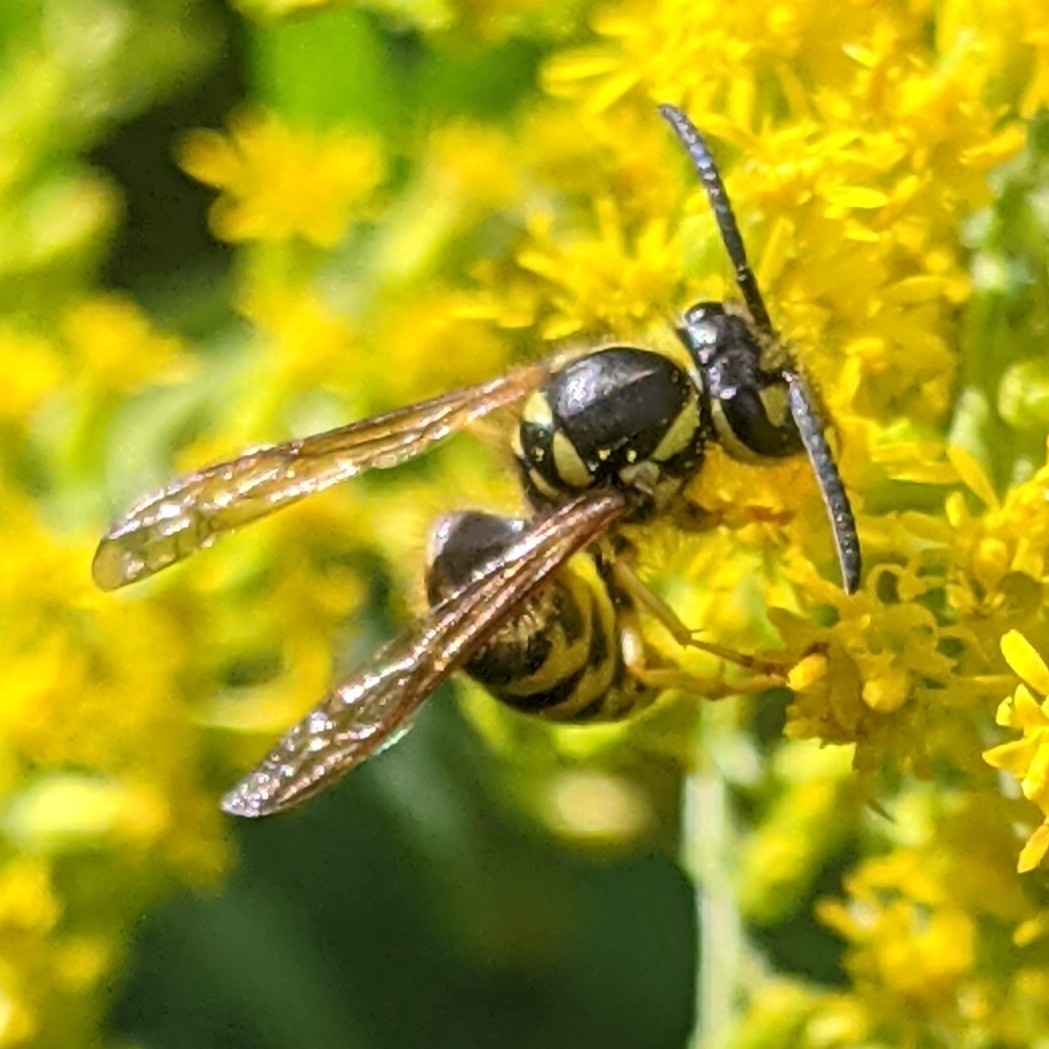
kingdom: Animalia
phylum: Arthropoda
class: Insecta
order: Hymenoptera
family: Vespidae
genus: Vespula
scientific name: Vespula
